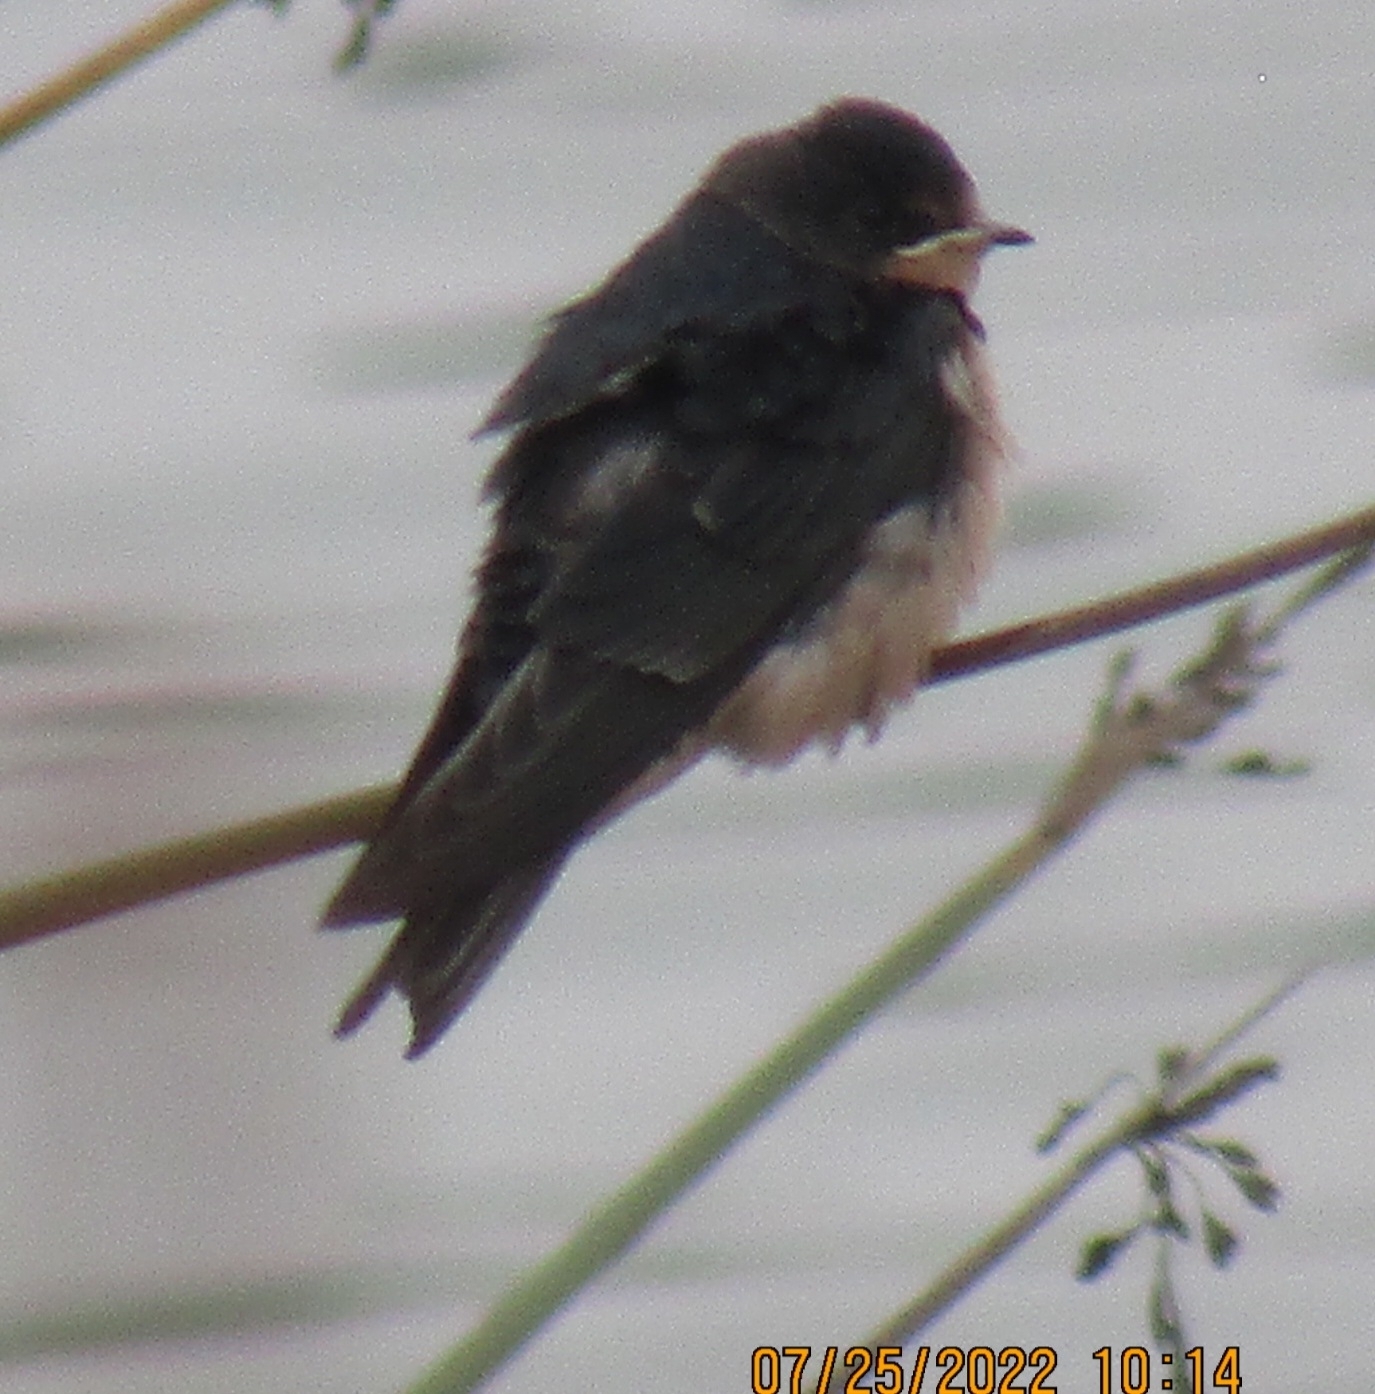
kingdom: Animalia
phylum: Chordata
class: Aves
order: Passeriformes
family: Hirundinidae
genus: Hirundo
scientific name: Hirundo rustica
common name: Barn swallow
